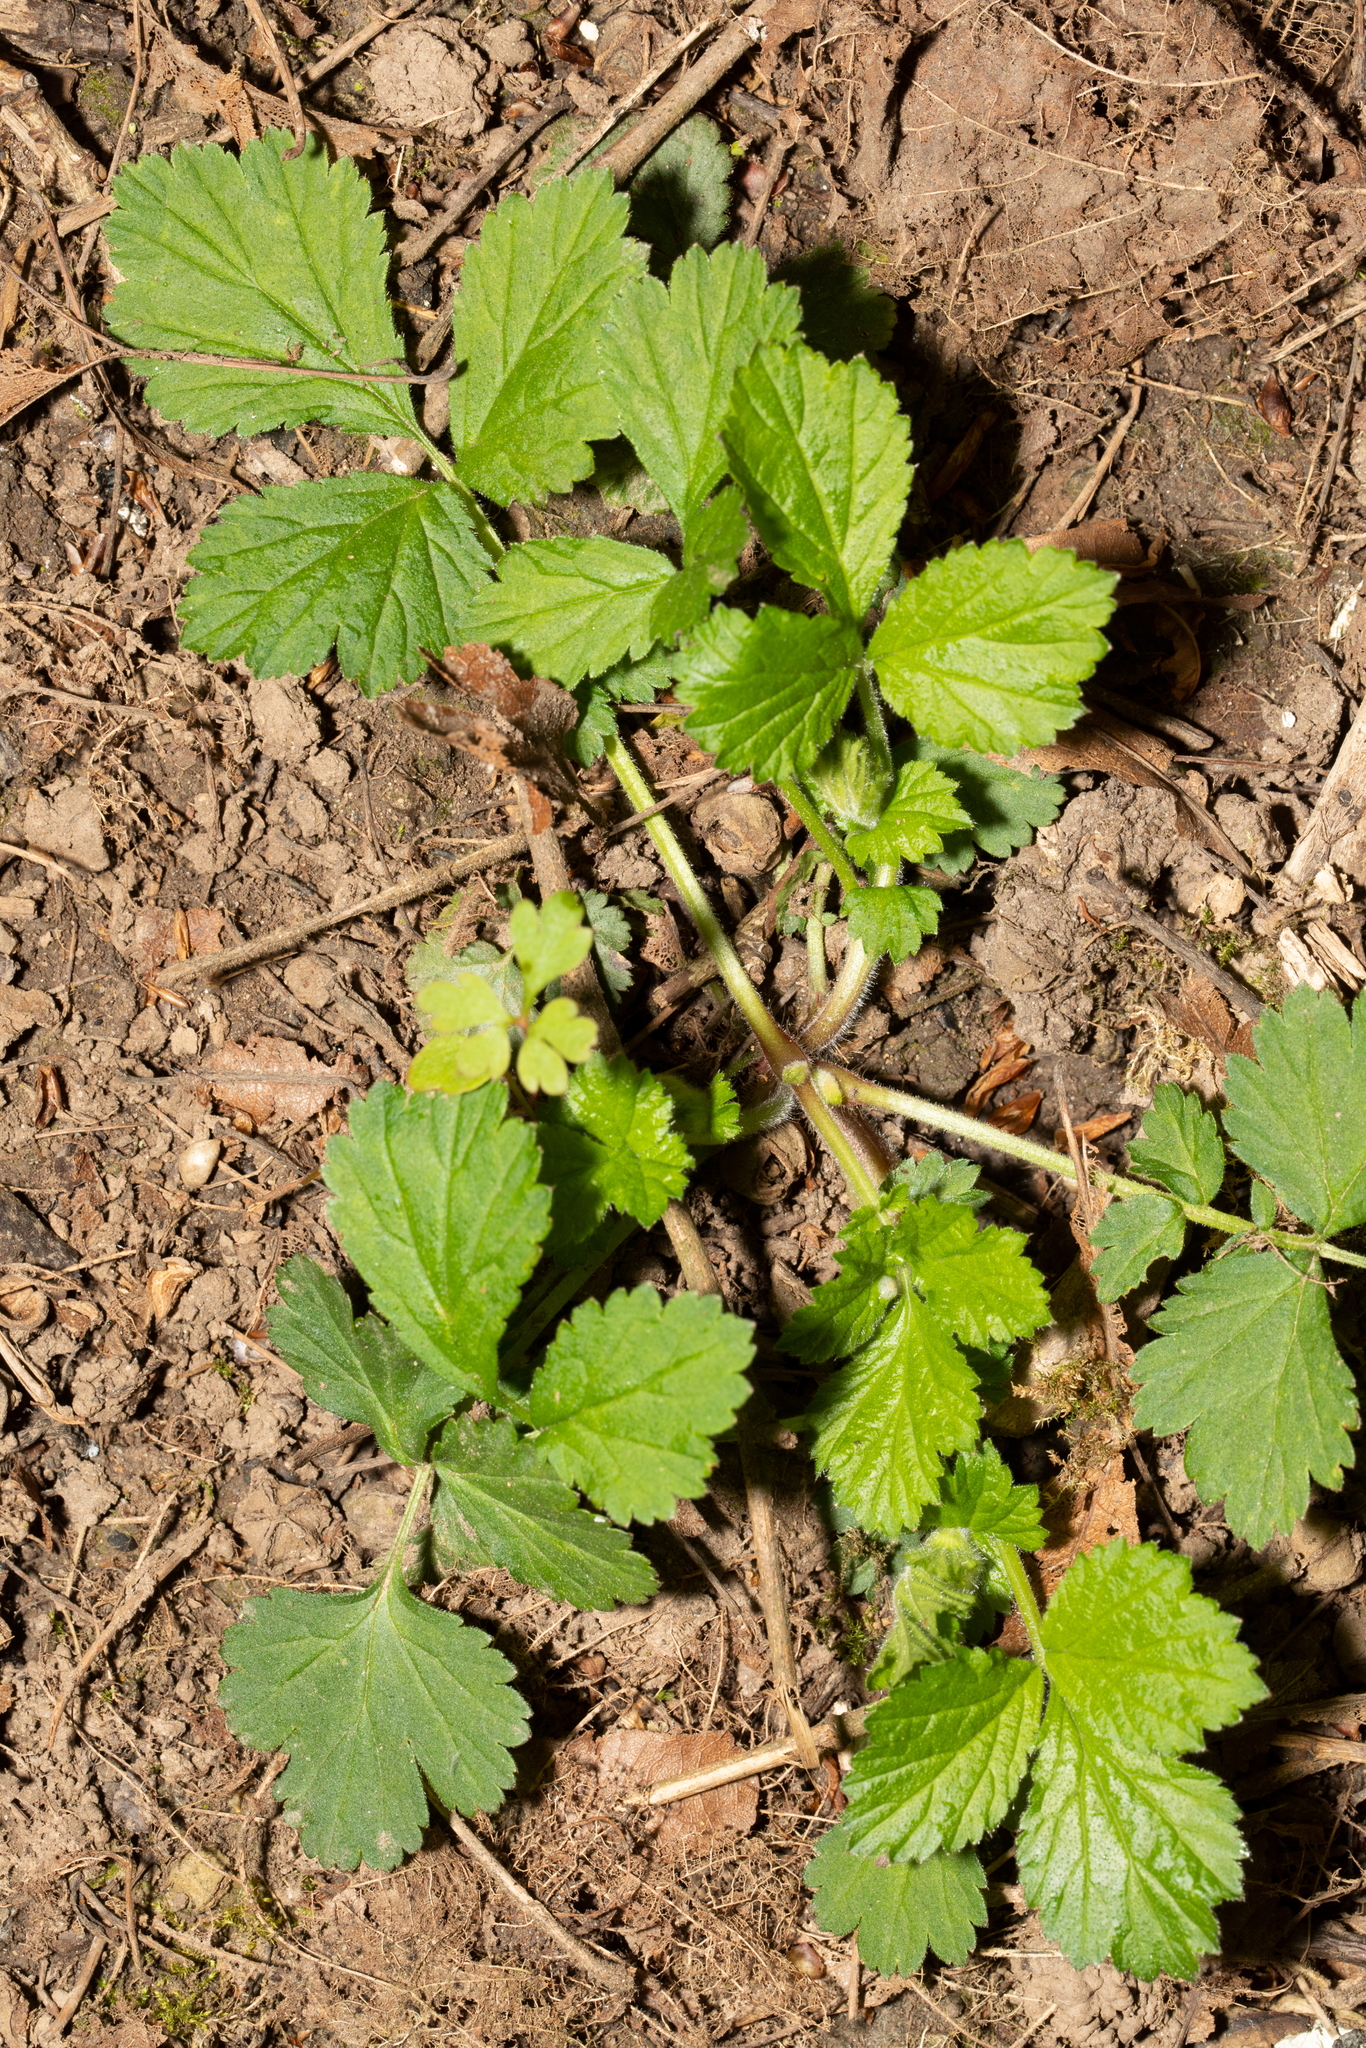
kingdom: Plantae
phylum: Tracheophyta
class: Magnoliopsida
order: Rosales
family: Rosaceae
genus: Geum
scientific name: Geum urbanum
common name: Wood avens
